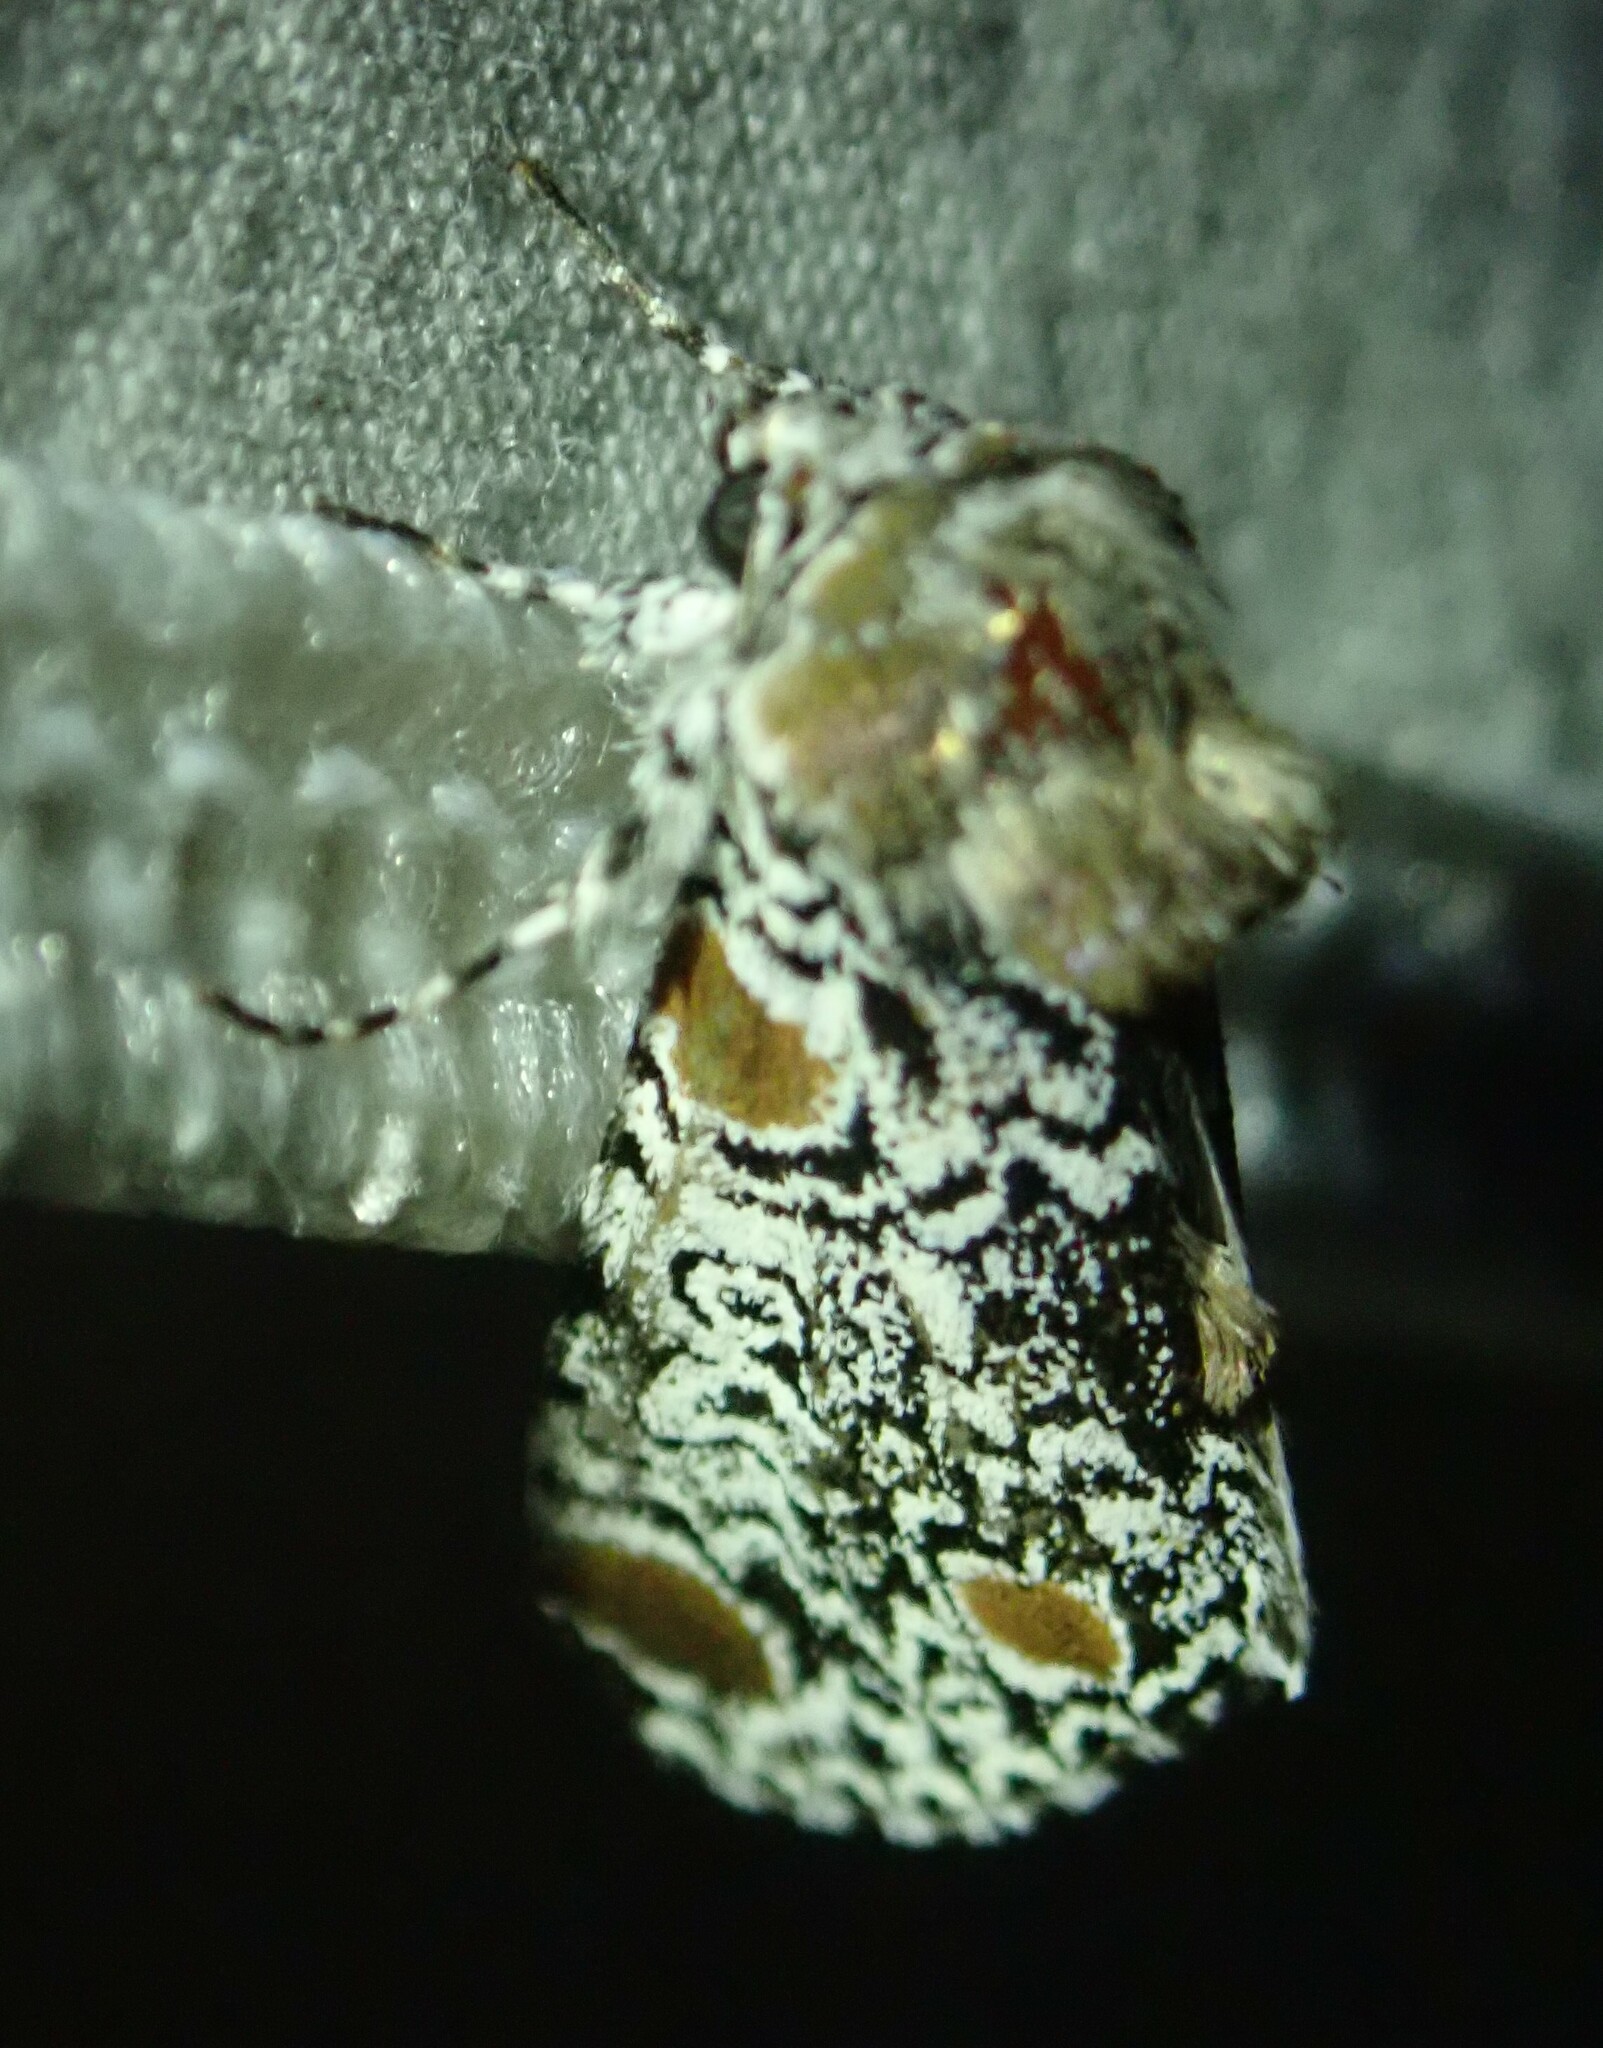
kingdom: Animalia
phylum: Arthropoda
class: Insecta
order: Lepidoptera
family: Noctuidae
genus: Harrisimemna
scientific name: Harrisimemna trisignata
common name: Harris threespot
